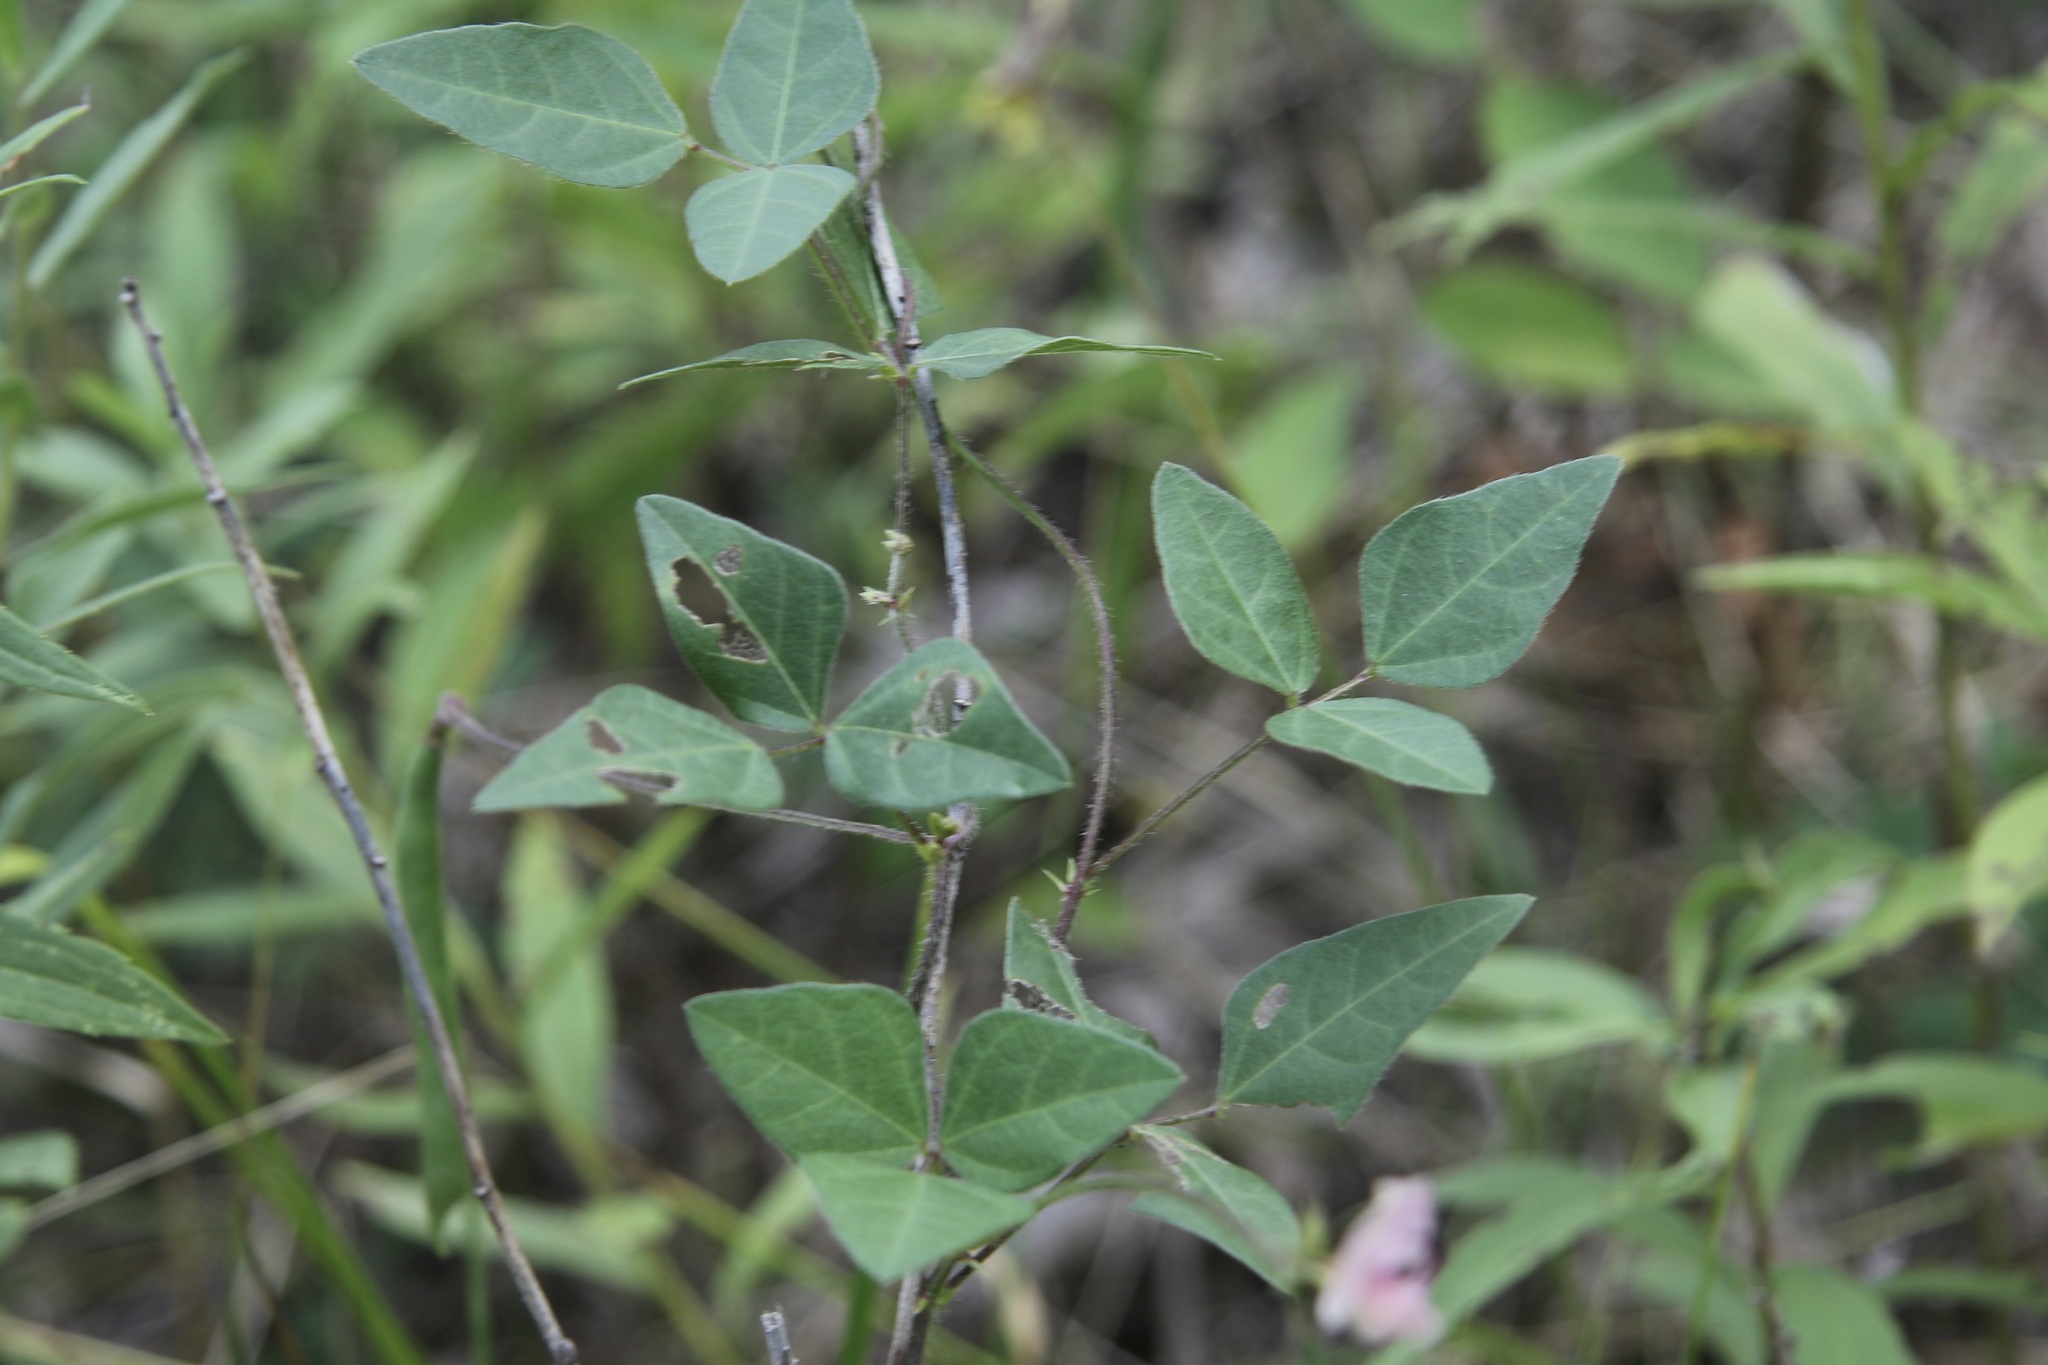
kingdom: Plantae
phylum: Tracheophyta
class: Magnoliopsida
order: Fabales
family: Fabaceae
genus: Strophostyles
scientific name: Strophostyles helvola
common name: Trailing wild bean
